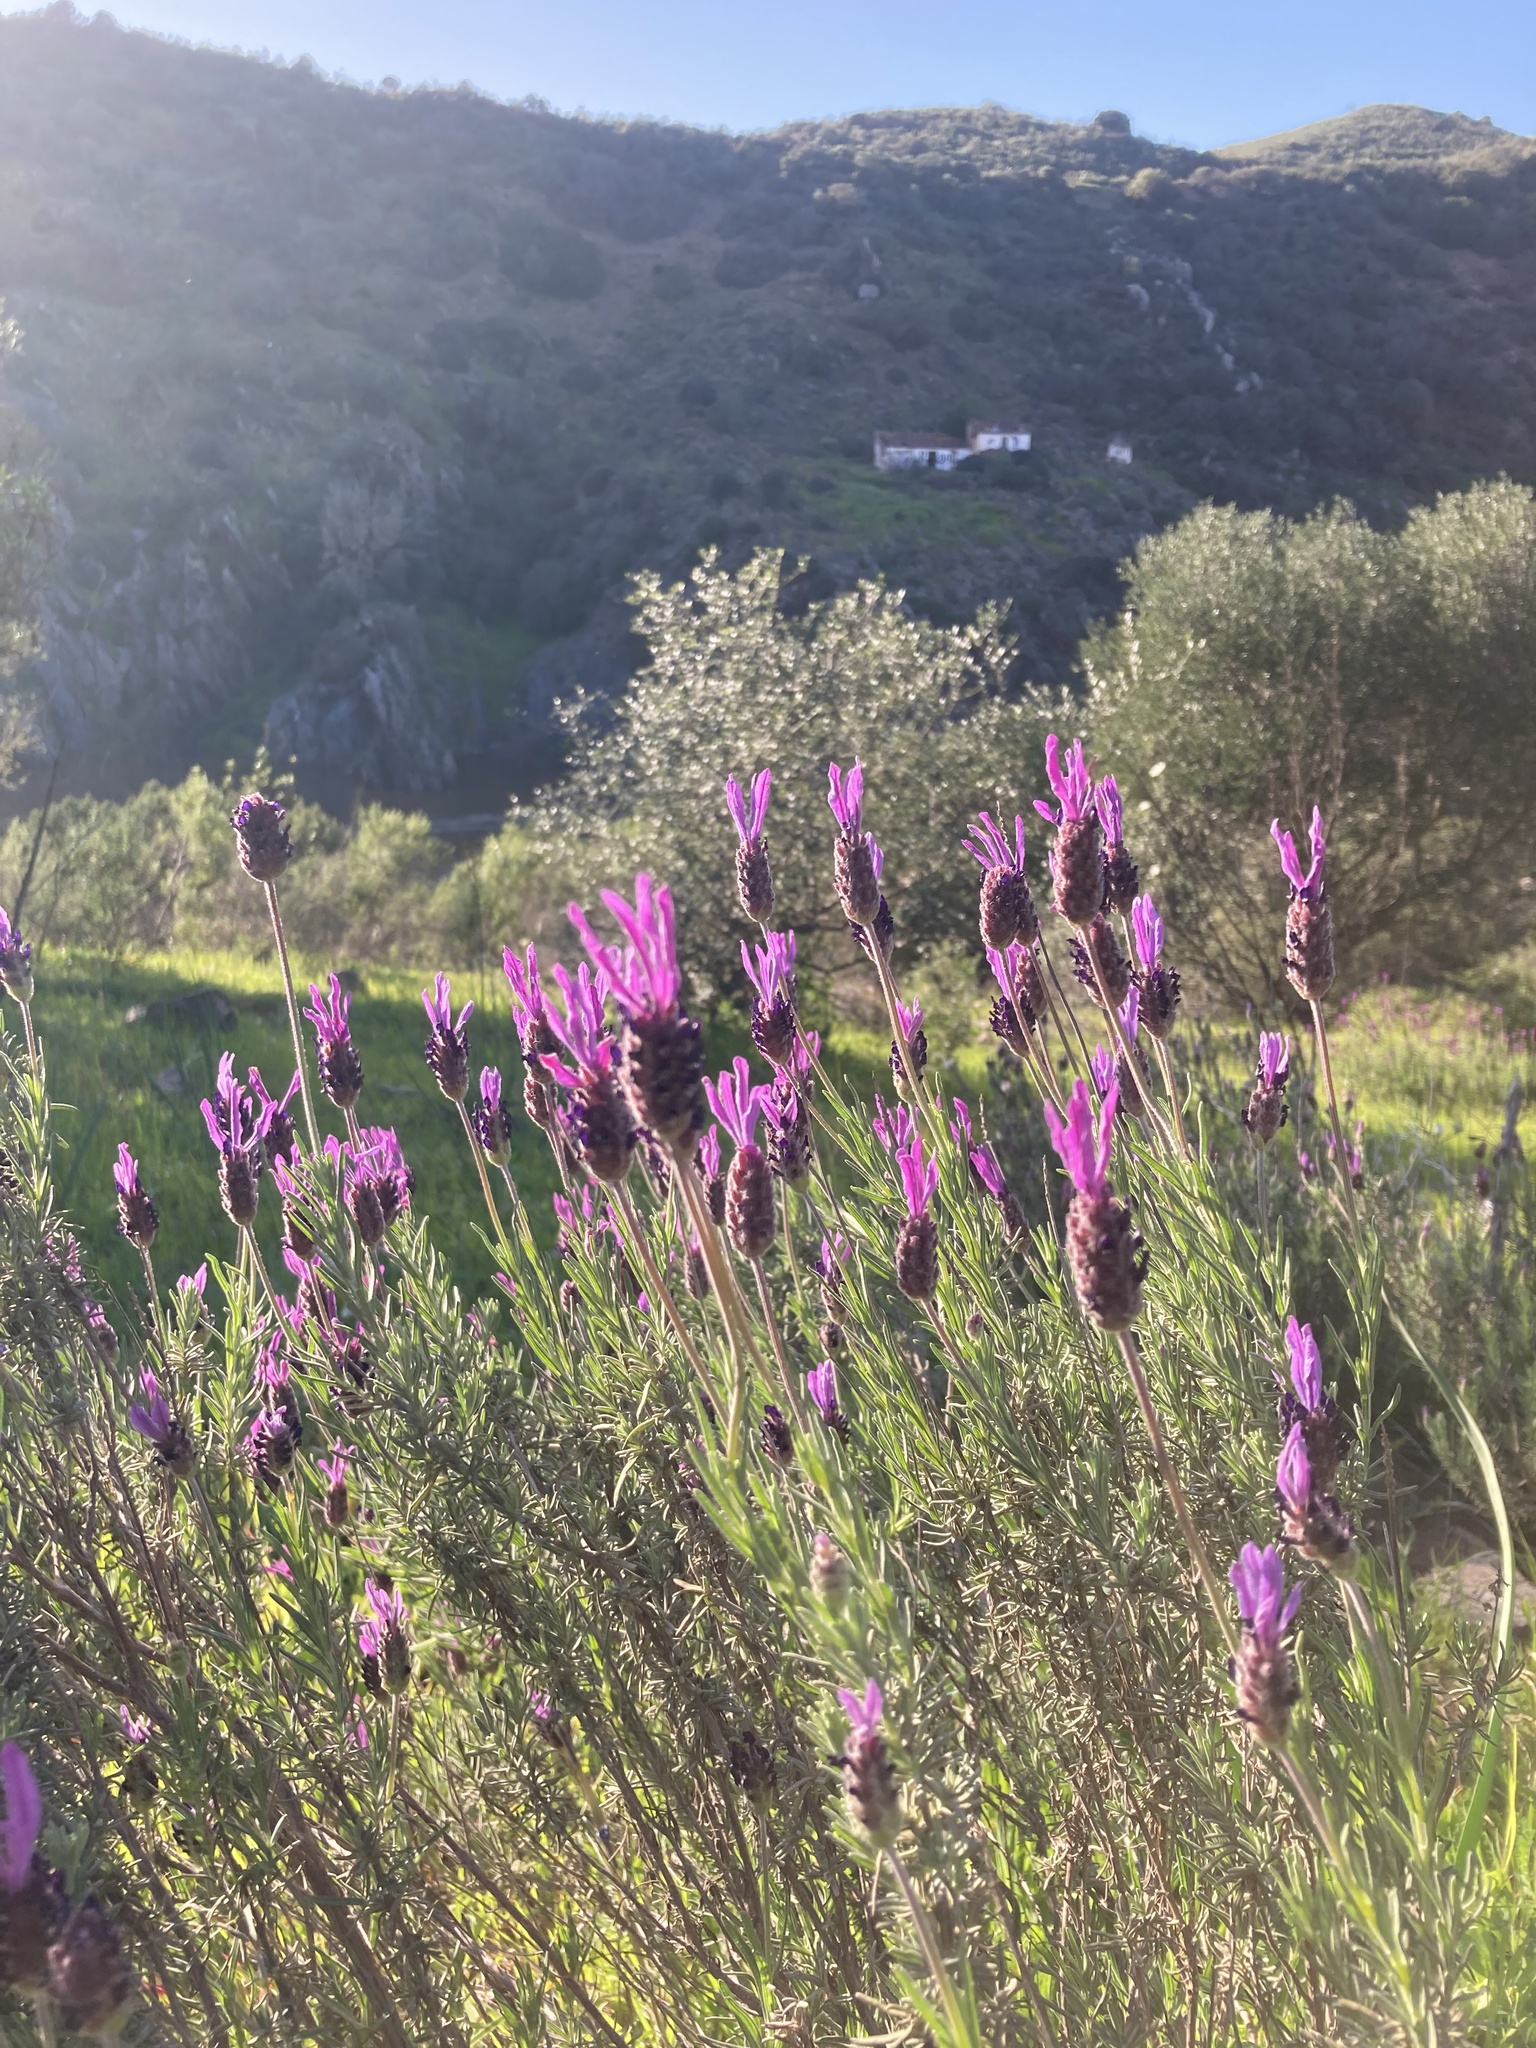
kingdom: Plantae
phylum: Tracheophyta
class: Magnoliopsida
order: Lamiales
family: Lamiaceae
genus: Lavandula
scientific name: Lavandula pedunculata
